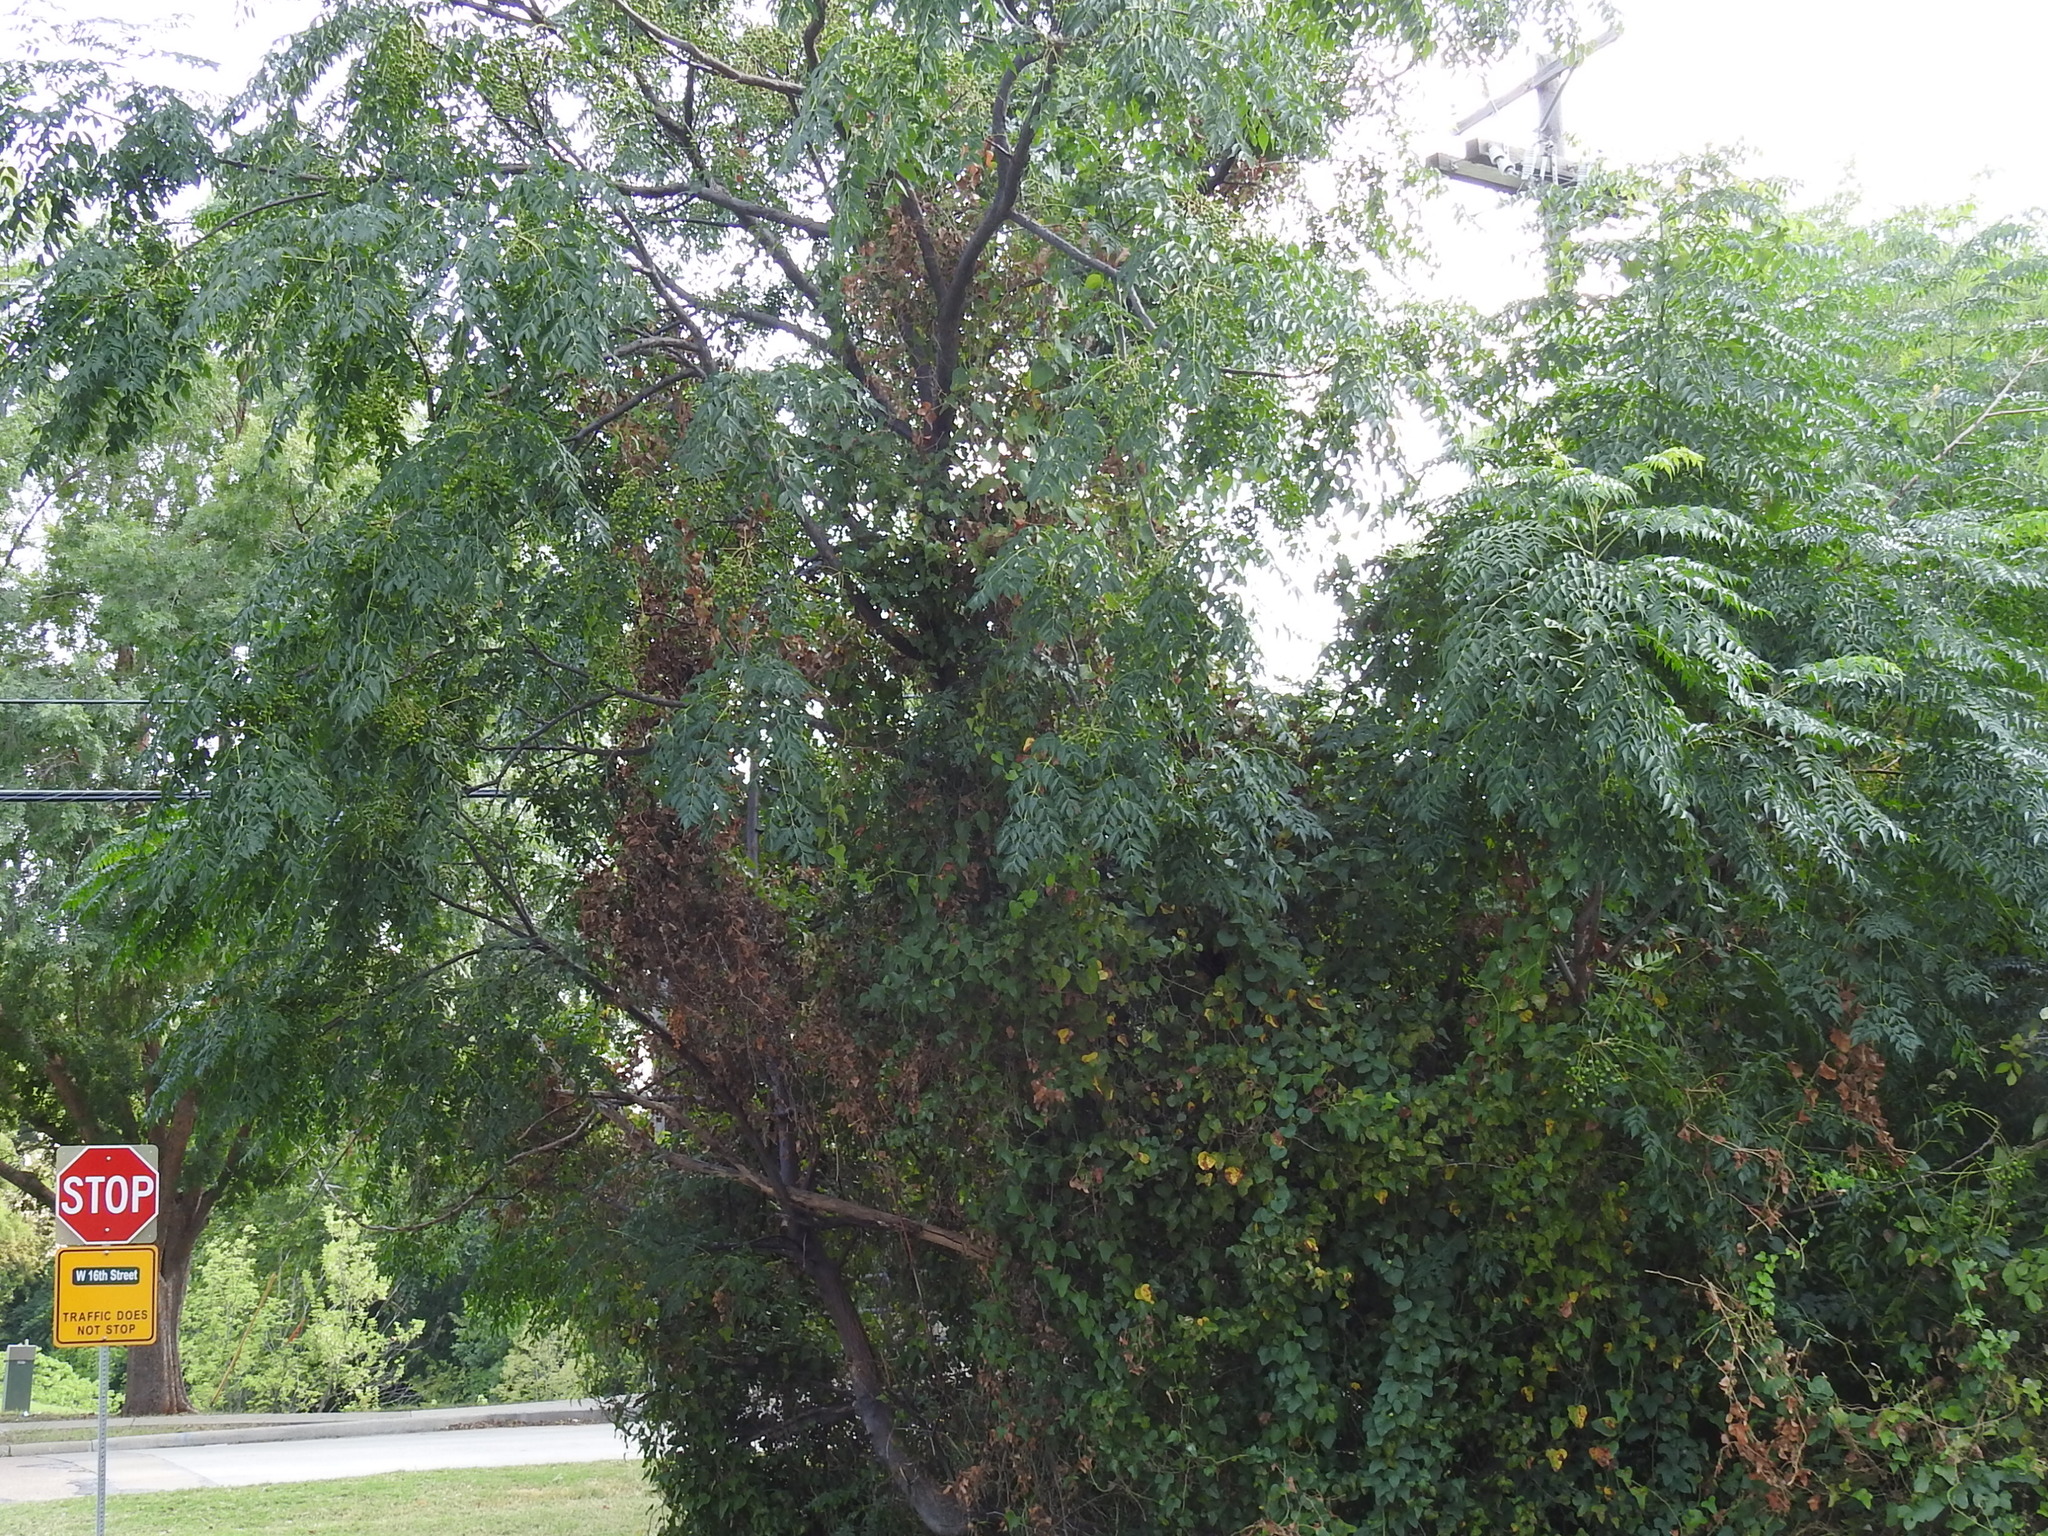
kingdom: Plantae
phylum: Tracheophyta
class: Magnoliopsida
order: Sapindales
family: Meliaceae
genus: Melia
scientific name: Melia azedarach
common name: Chinaberrytree
